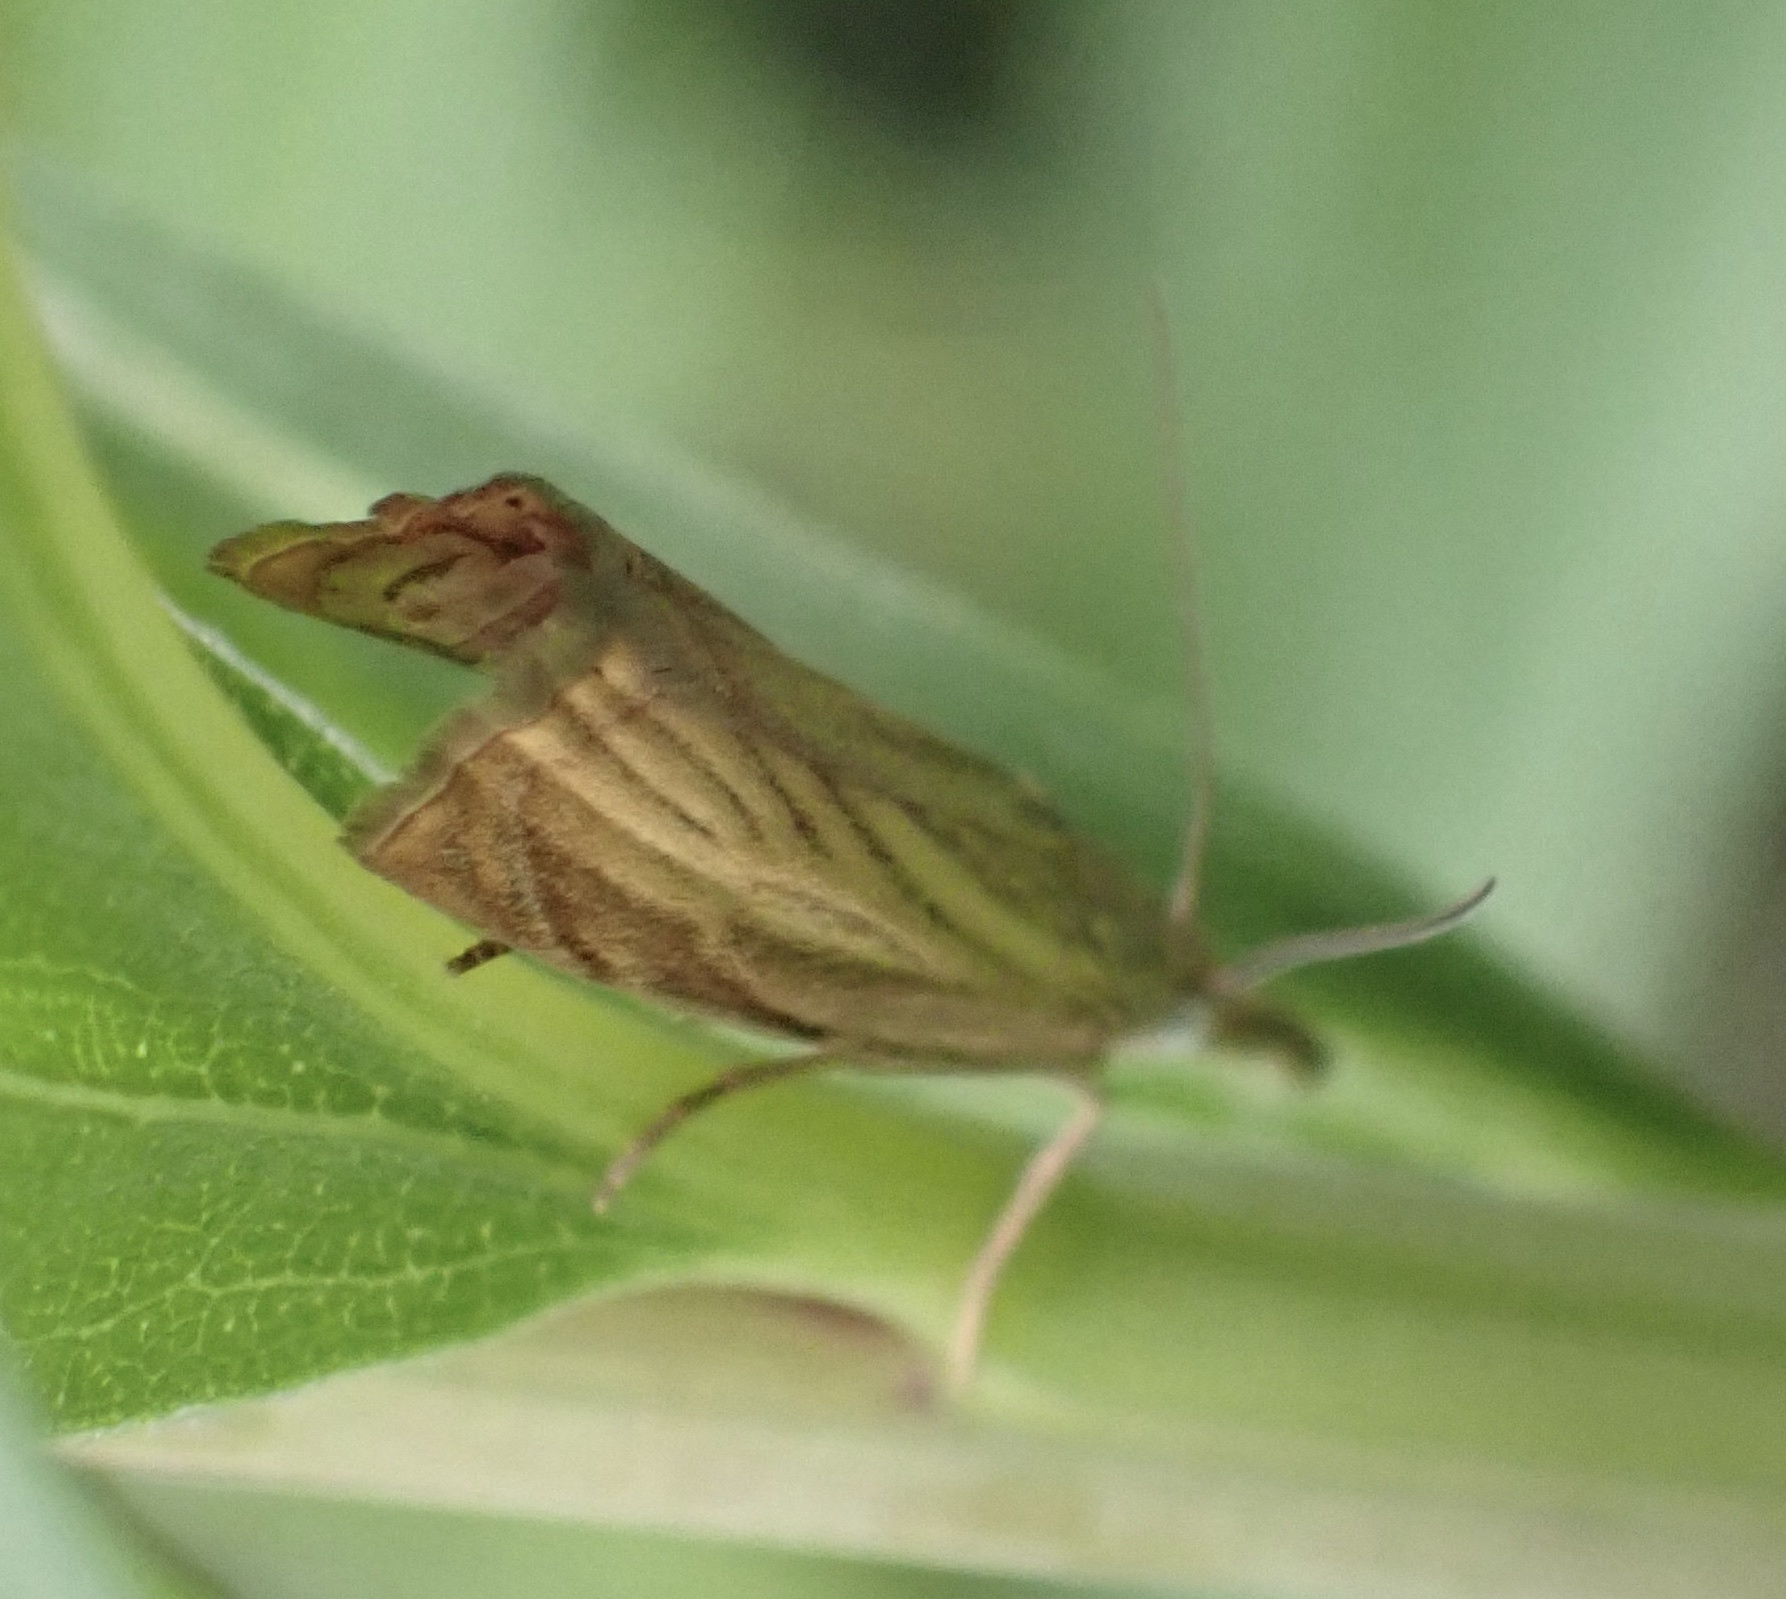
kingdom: Animalia
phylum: Arthropoda
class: Insecta
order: Lepidoptera
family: Crambidae
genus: Chrysoteuchia
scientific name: Chrysoteuchia culmella
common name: Garden grass-veneer
